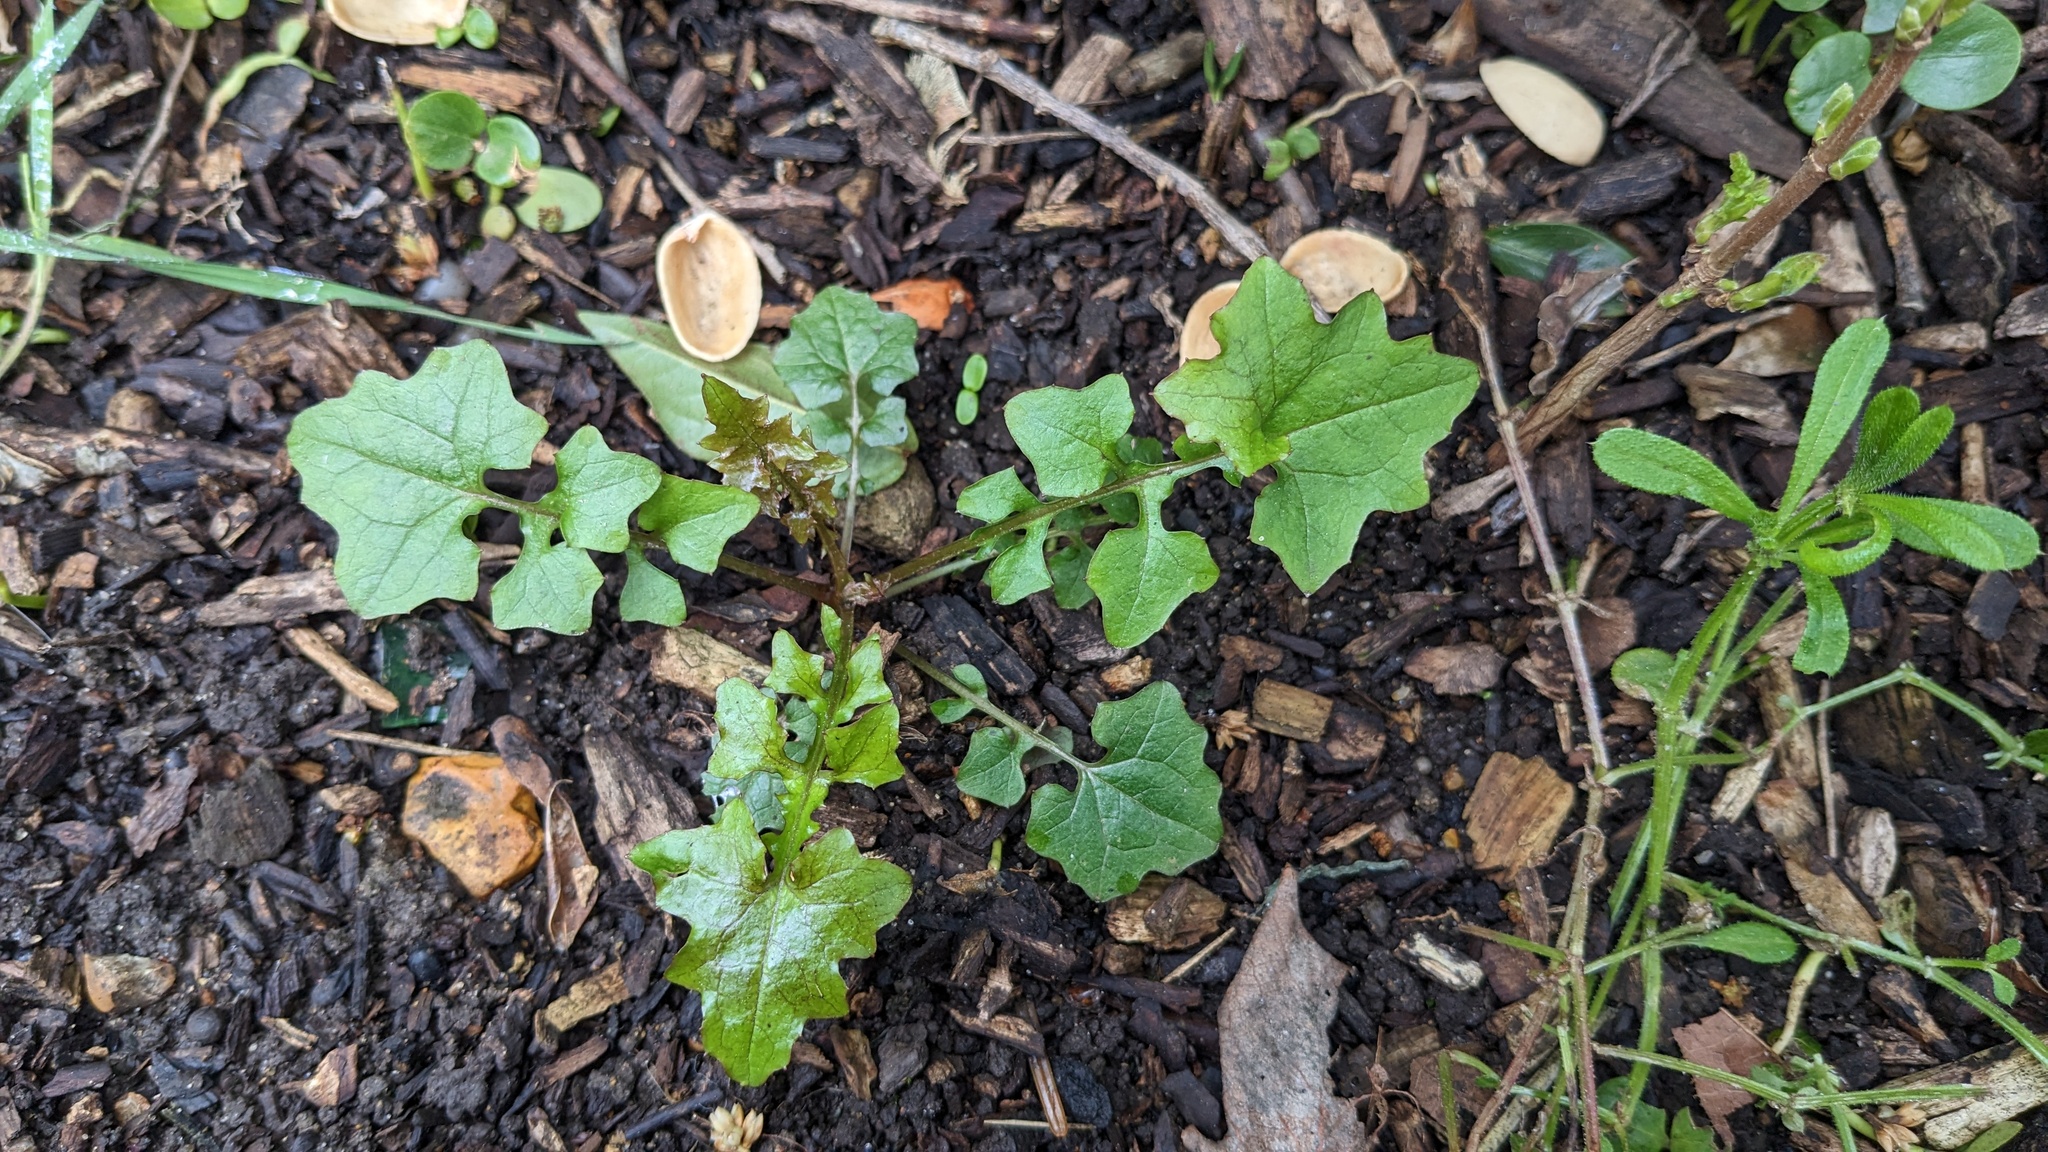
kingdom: Plantae
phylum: Tracheophyta
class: Magnoliopsida
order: Asterales
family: Asteraceae
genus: Mycelis
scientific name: Mycelis muralis
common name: Wall lettuce
